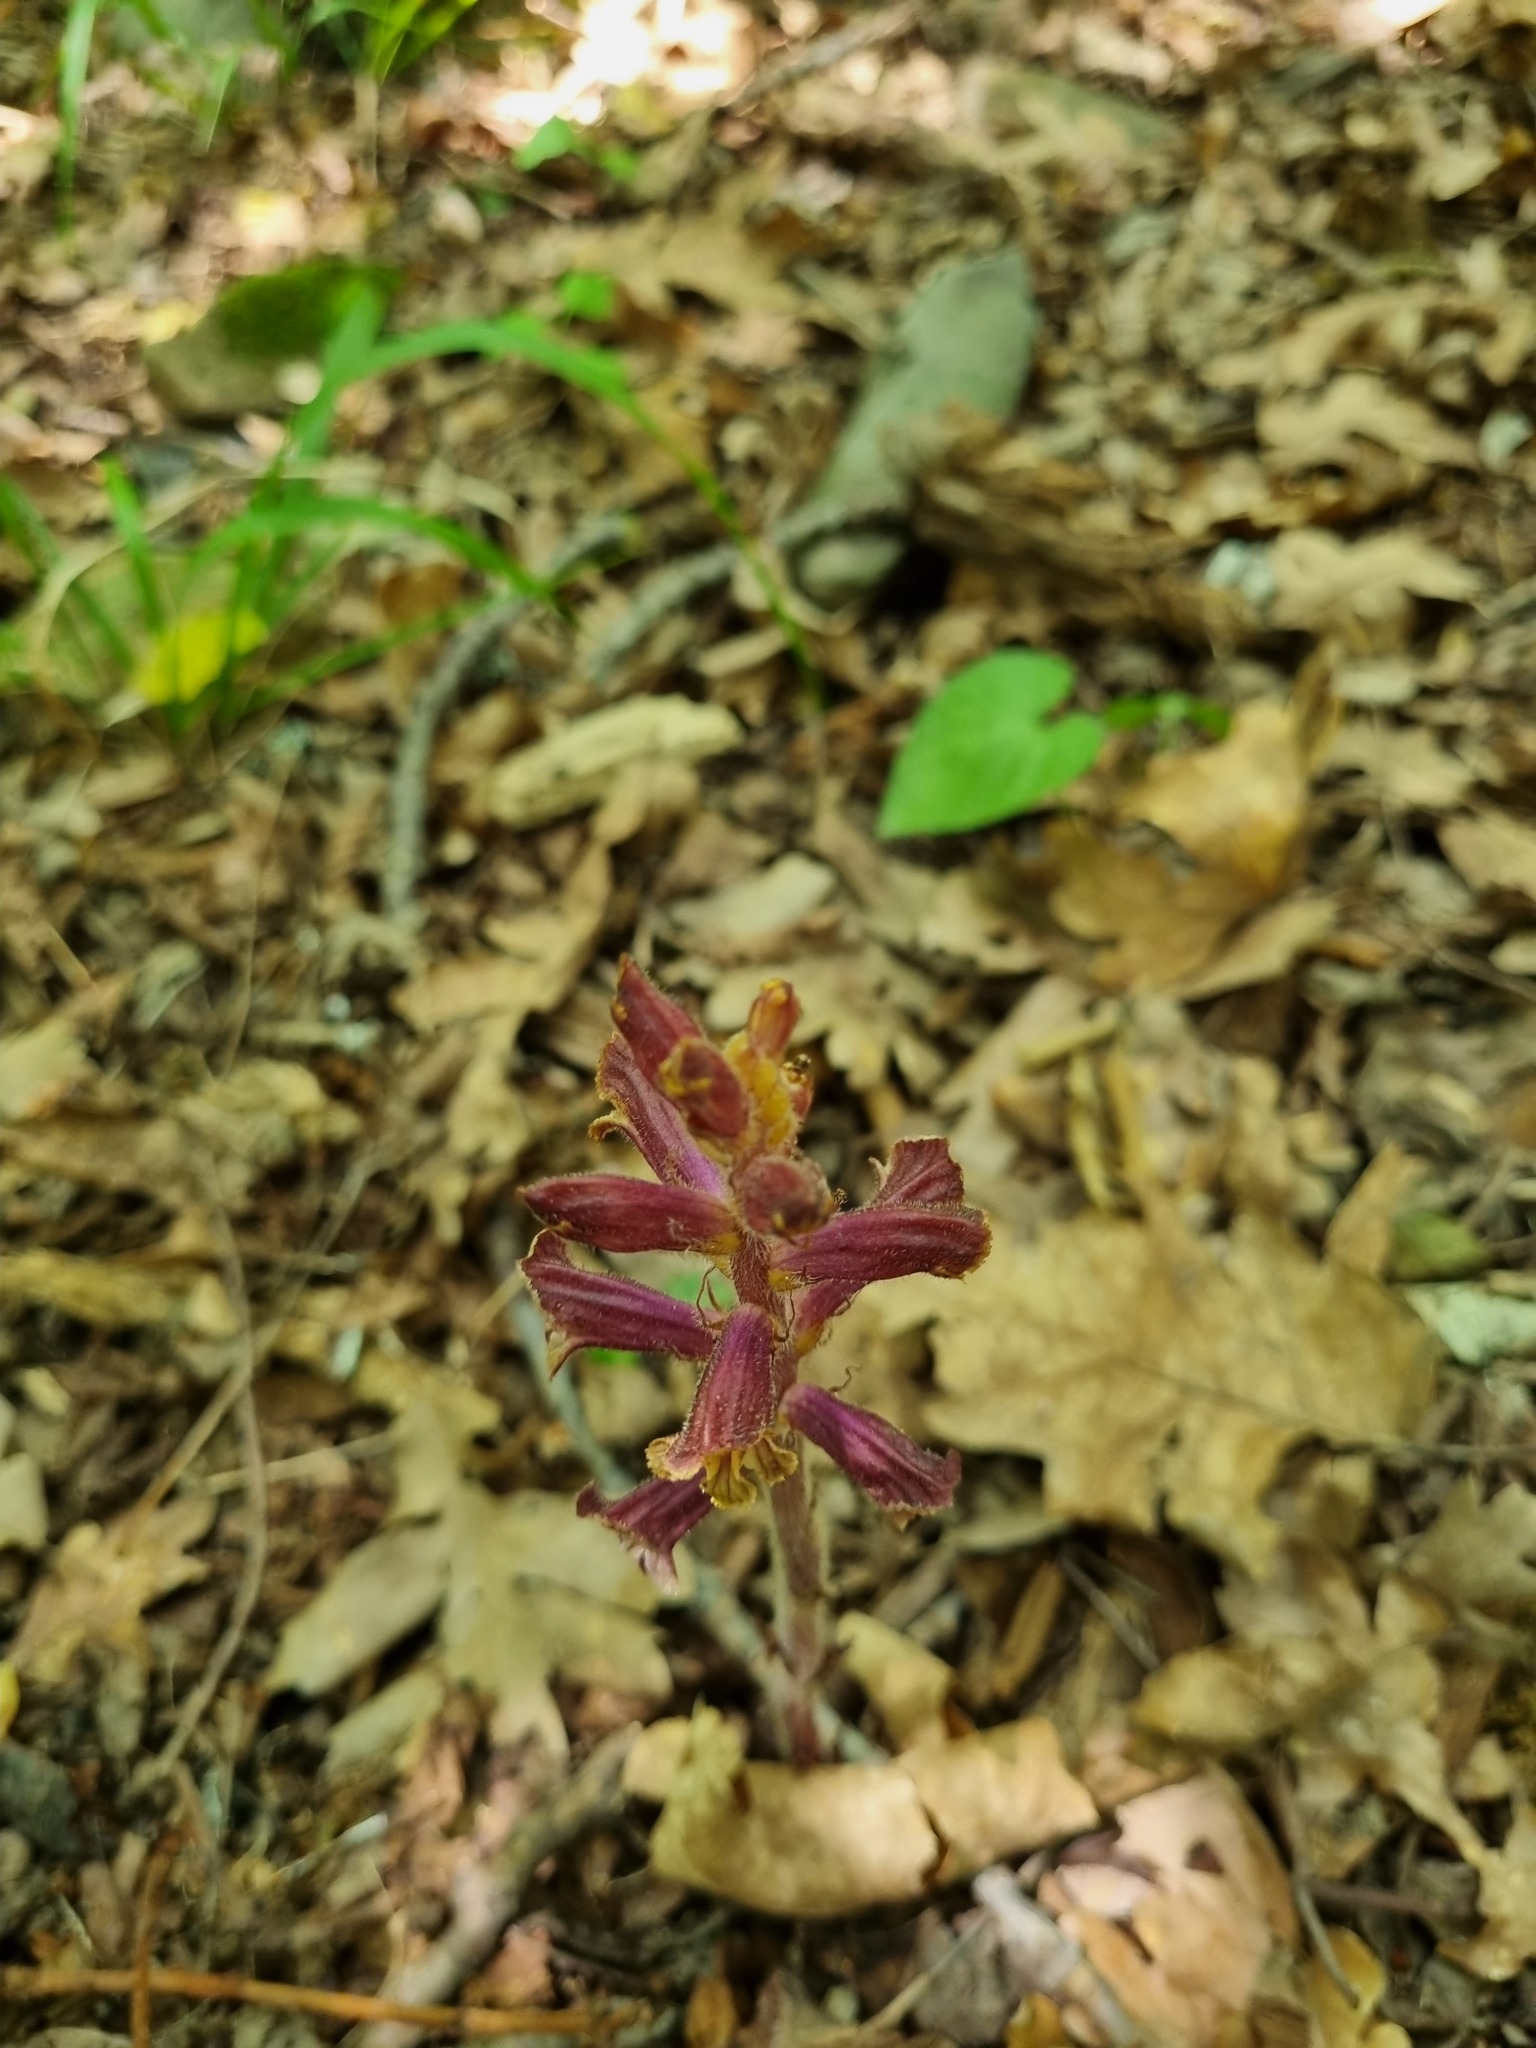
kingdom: Plantae
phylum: Tracheophyta
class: Magnoliopsida
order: Lamiales
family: Orobanchaceae
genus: Orobanche
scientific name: Orobanche laxissima
